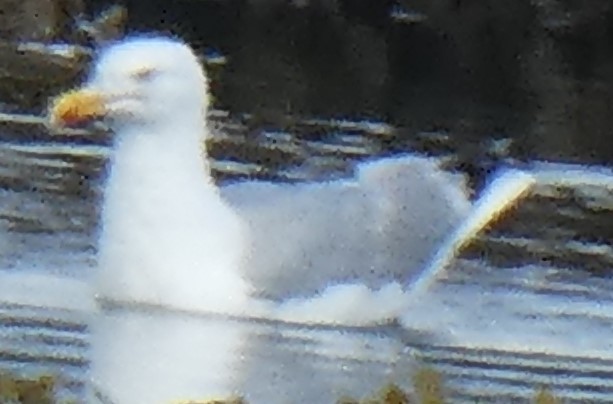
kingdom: Animalia
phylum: Chordata
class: Aves
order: Charadriiformes
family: Laridae
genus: Larus
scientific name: Larus argentatus
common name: Herring gull
